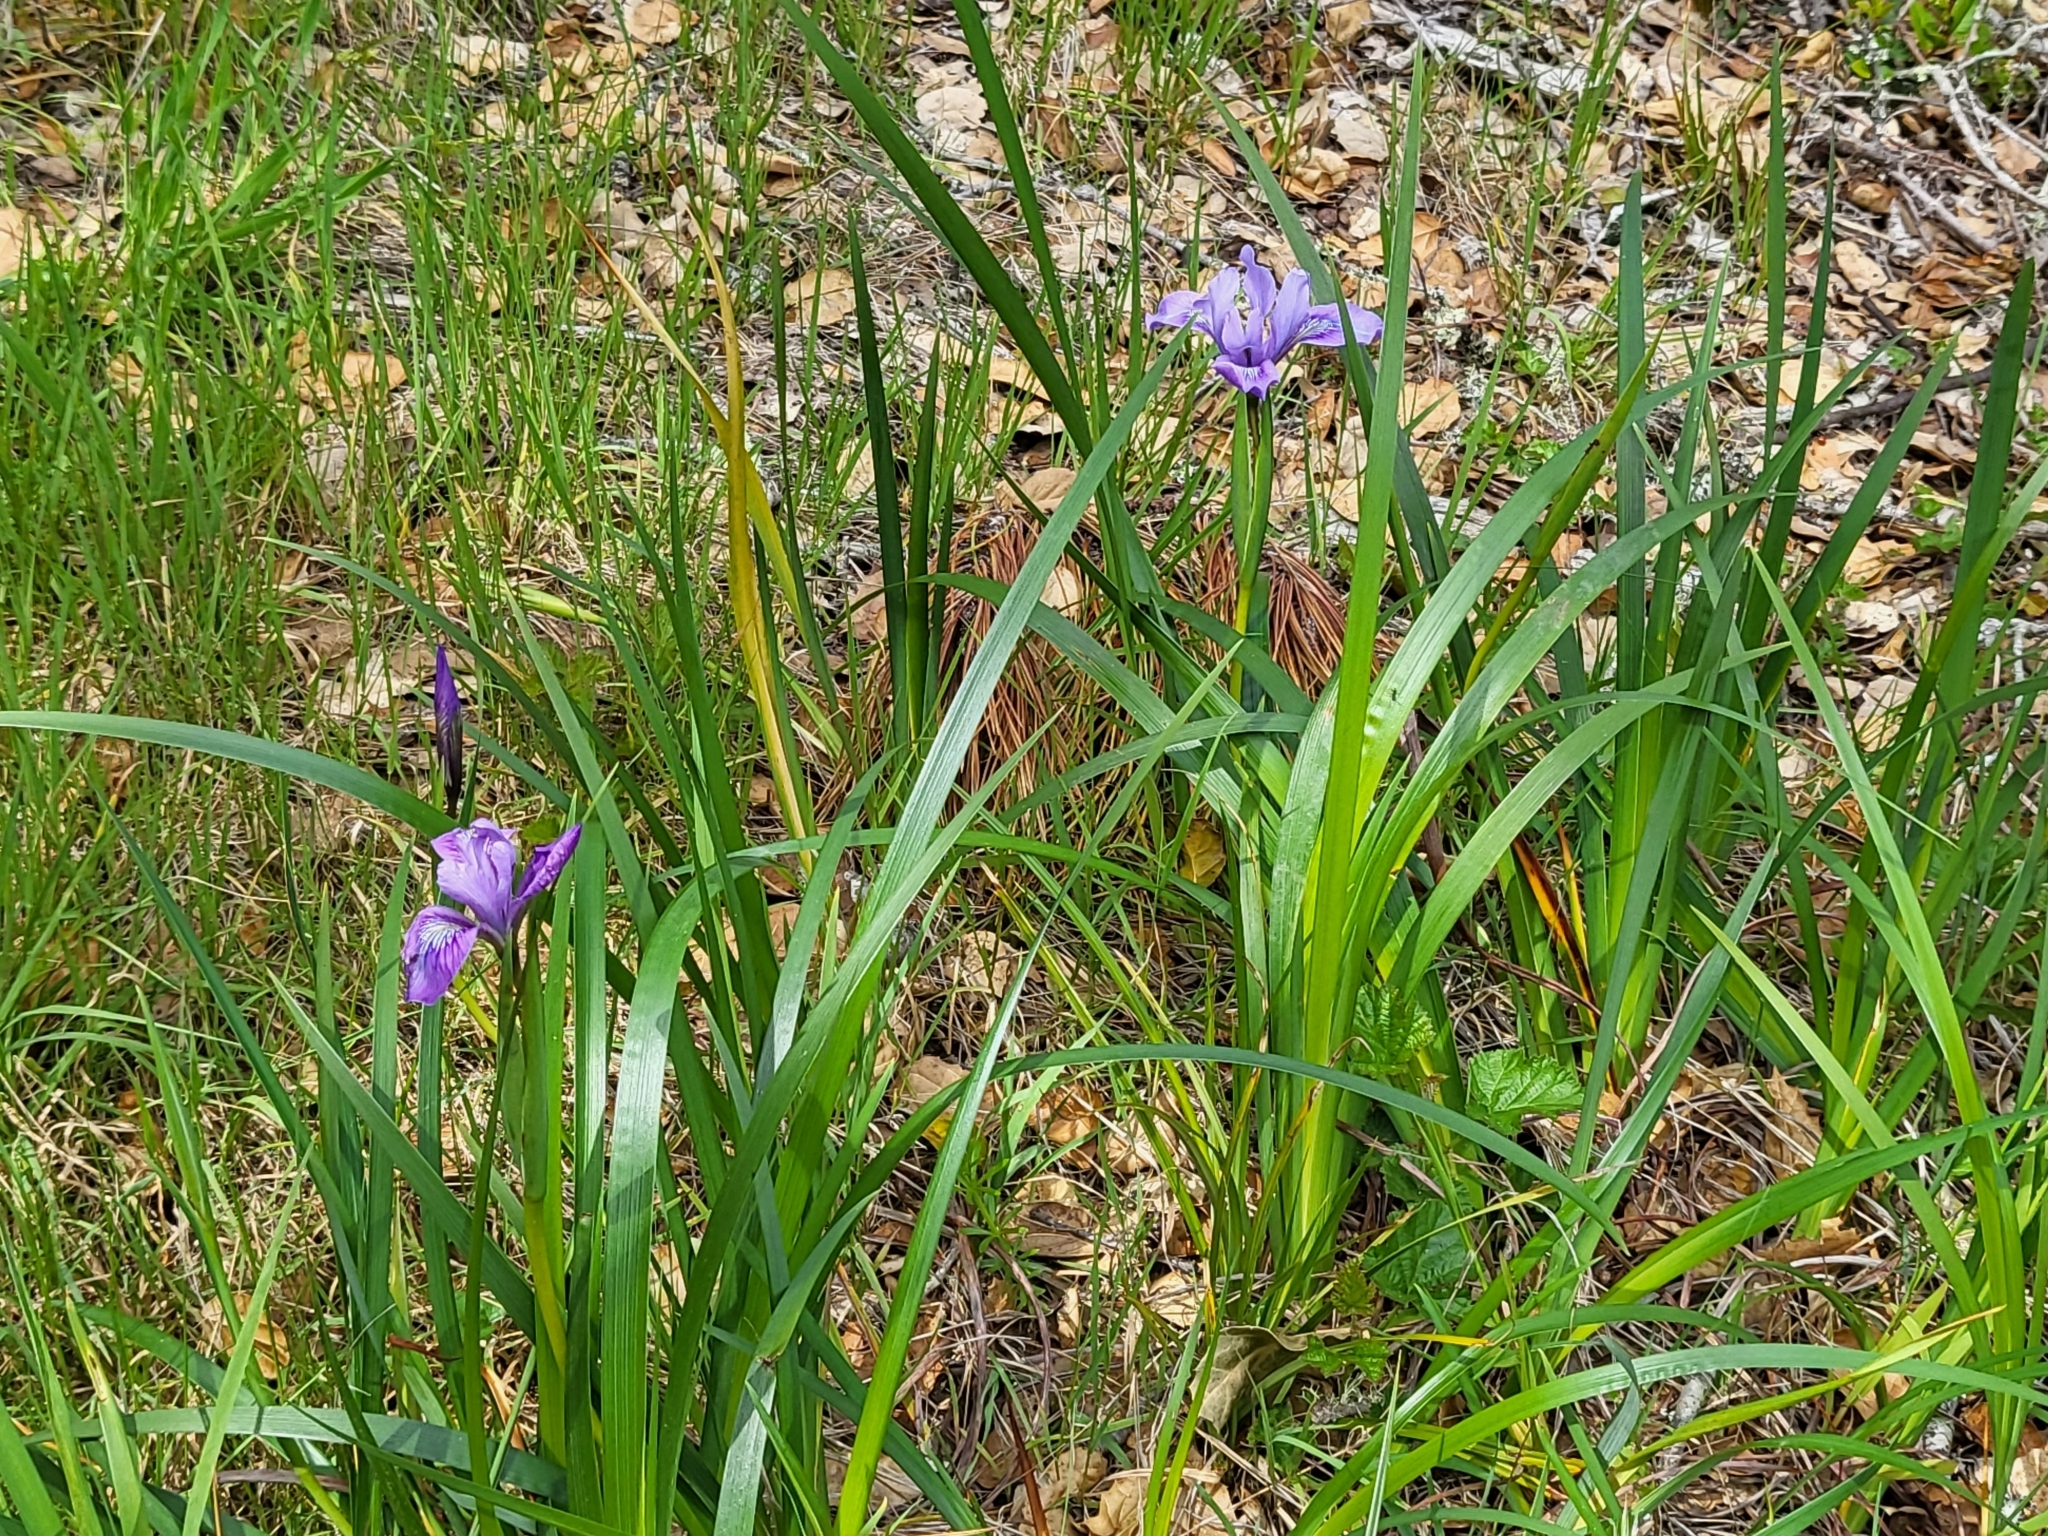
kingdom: Plantae
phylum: Tracheophyta
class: Liliopsida
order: Asparagales
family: Iridaceae
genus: Iris
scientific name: Iris douglasiana
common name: Marin iris
